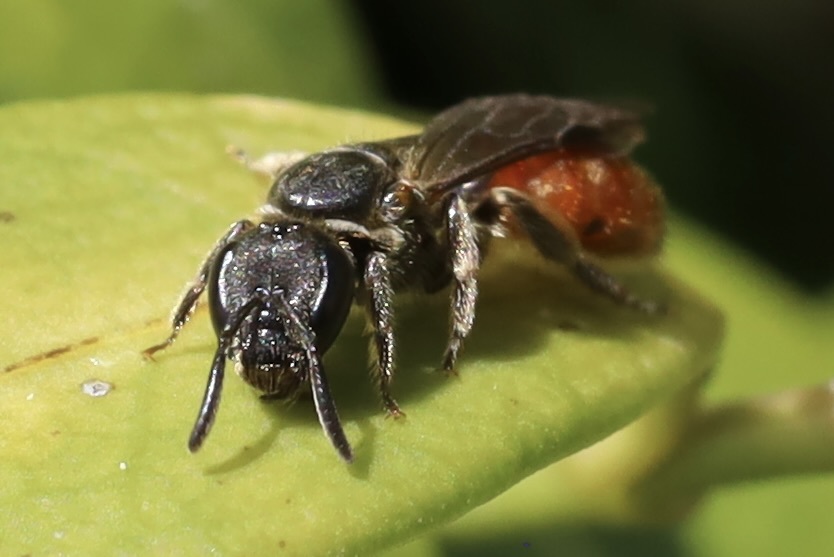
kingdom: Animalia
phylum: Arthropoda
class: Insecta
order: Hymenoptera
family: Halictidae
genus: Lasioglossum
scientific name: Lasioglossum ovaliceps
